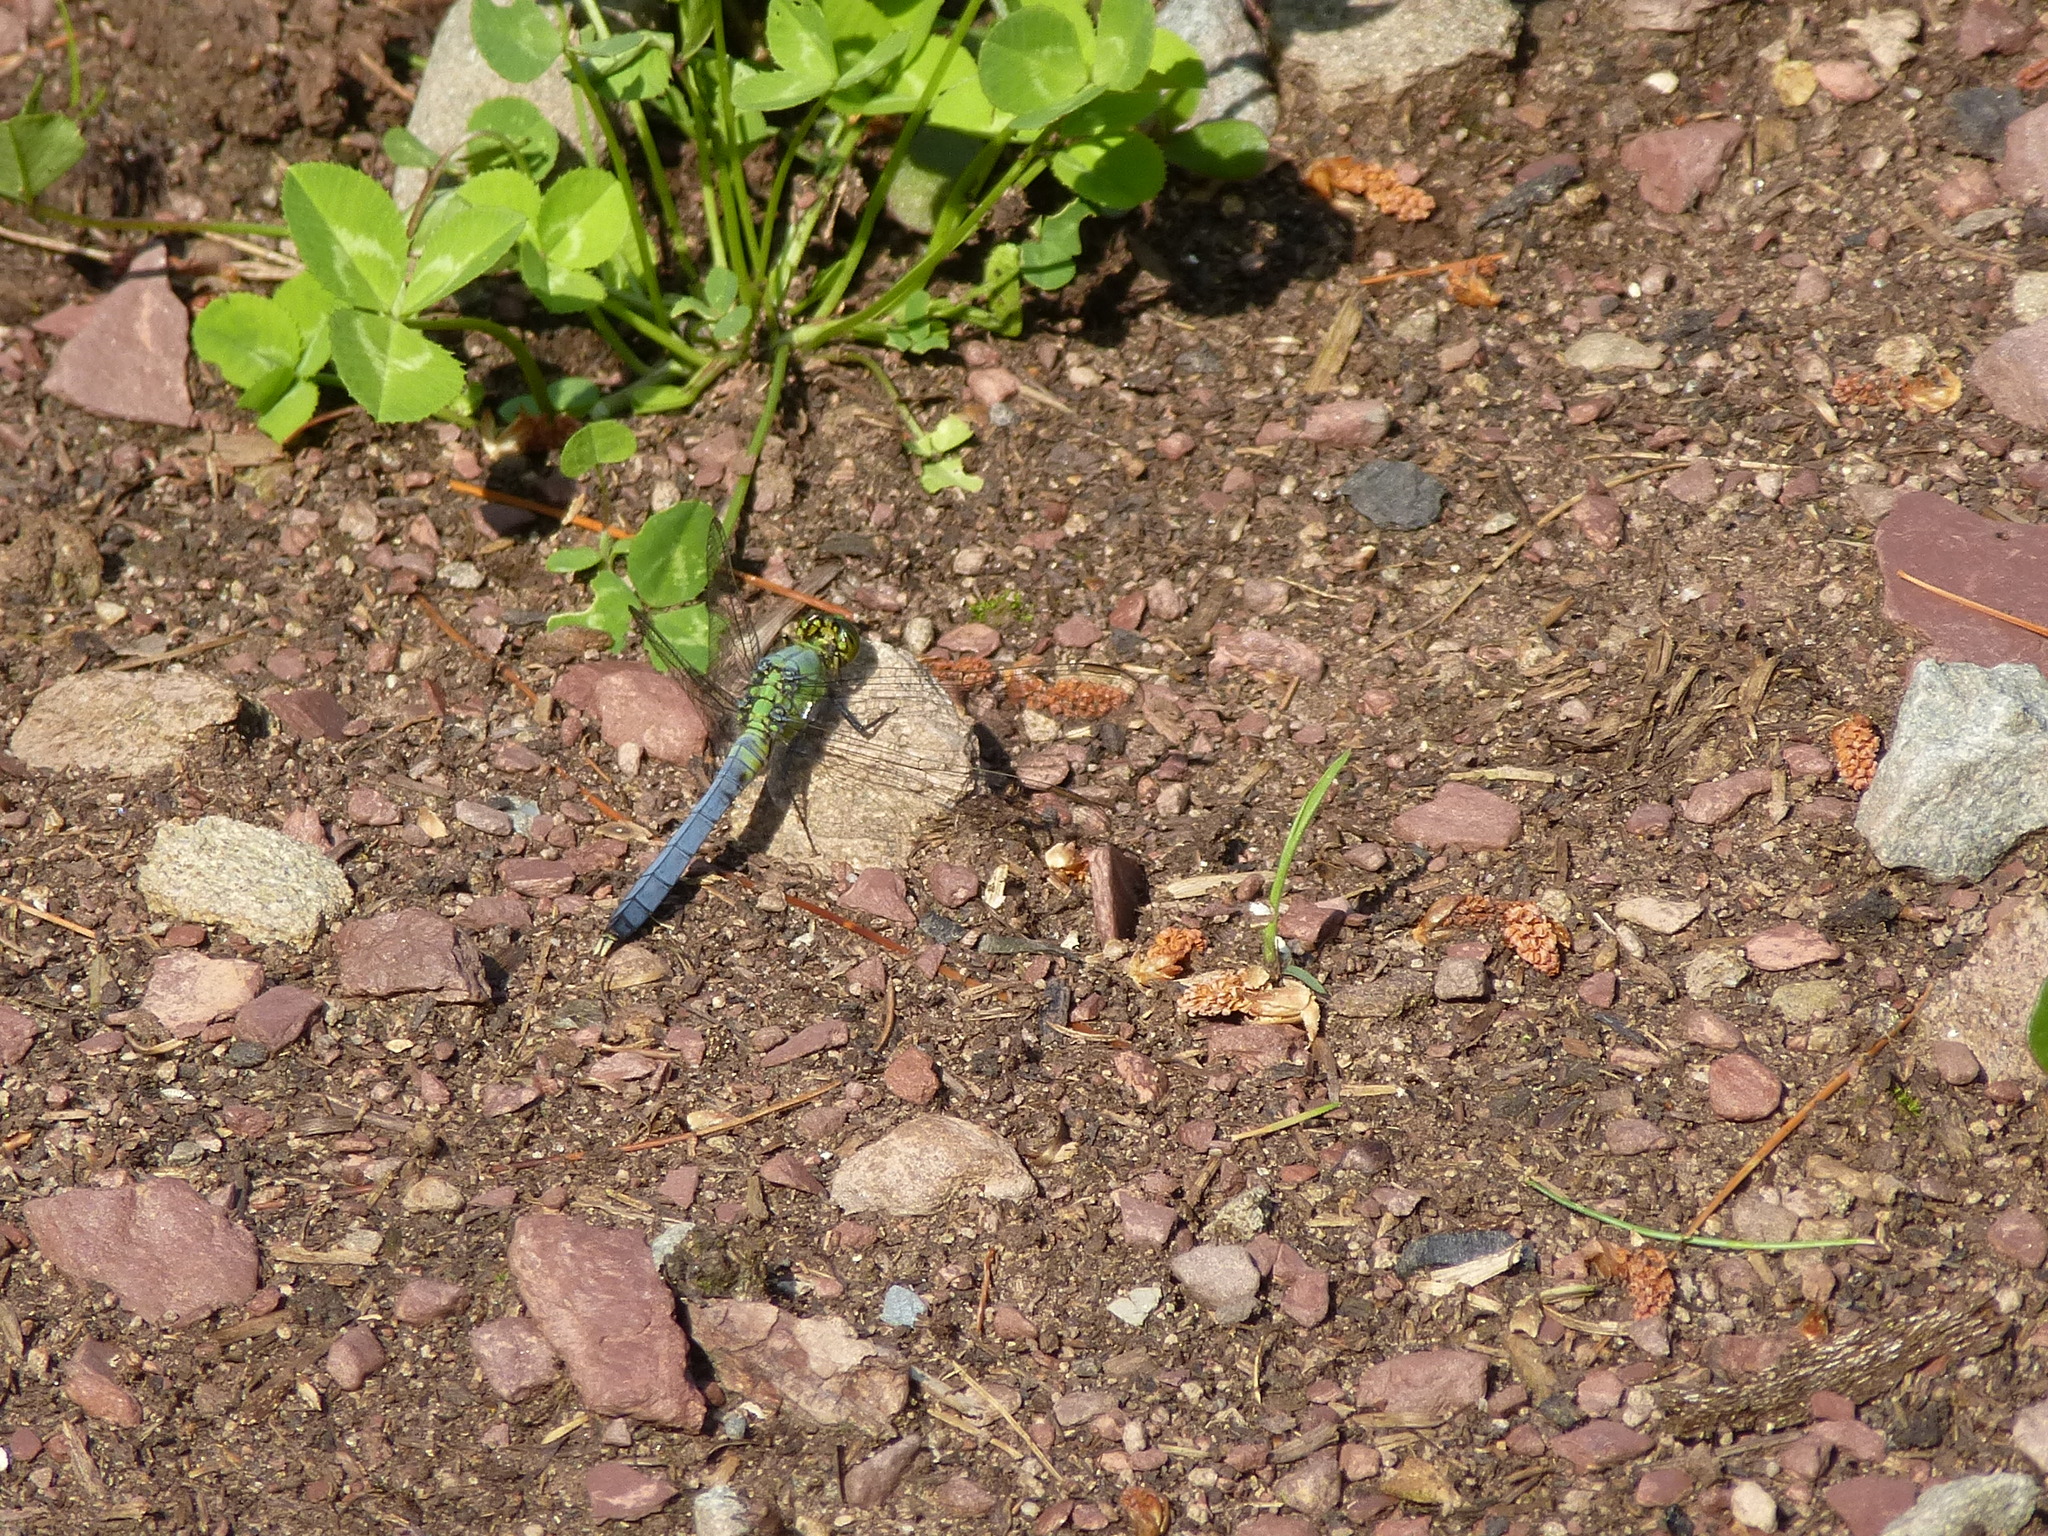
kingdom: Animalia
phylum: Arthropoda
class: Insecta
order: Odonata
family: Libellulidae
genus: Erythemis
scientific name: Erythemis simplicicollis
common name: Eastern pondhawk
